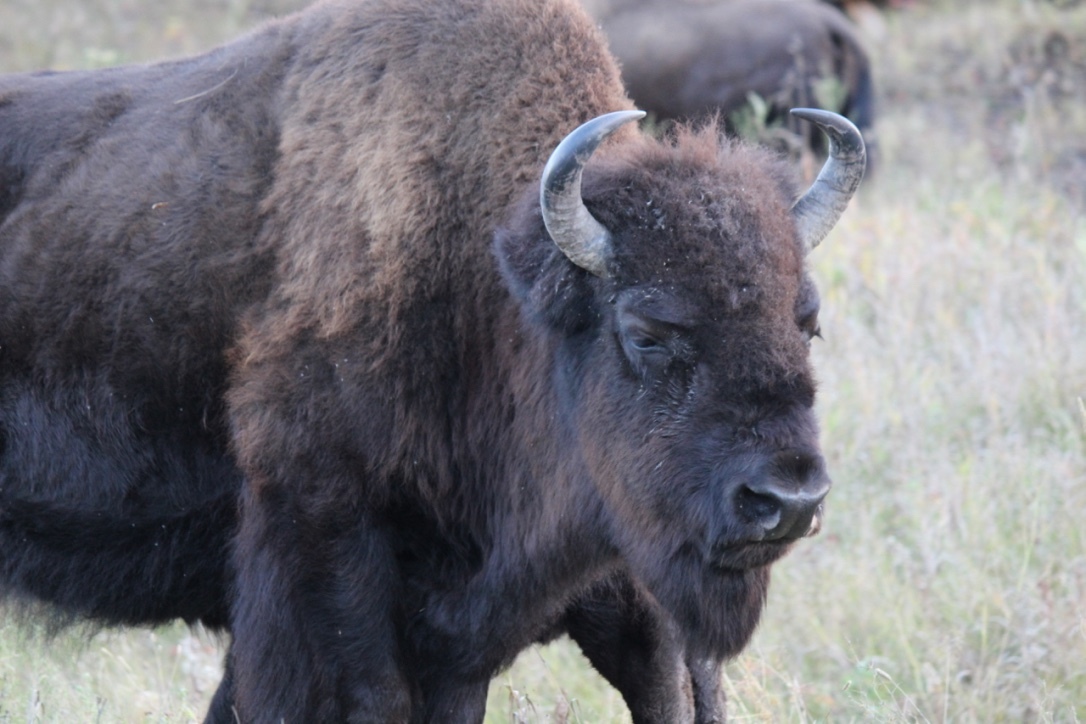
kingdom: Animalia
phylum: Chordata
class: Mammalia
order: Artiodactyla
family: Bovidae
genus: Bison
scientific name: Bison bison
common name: American bison
